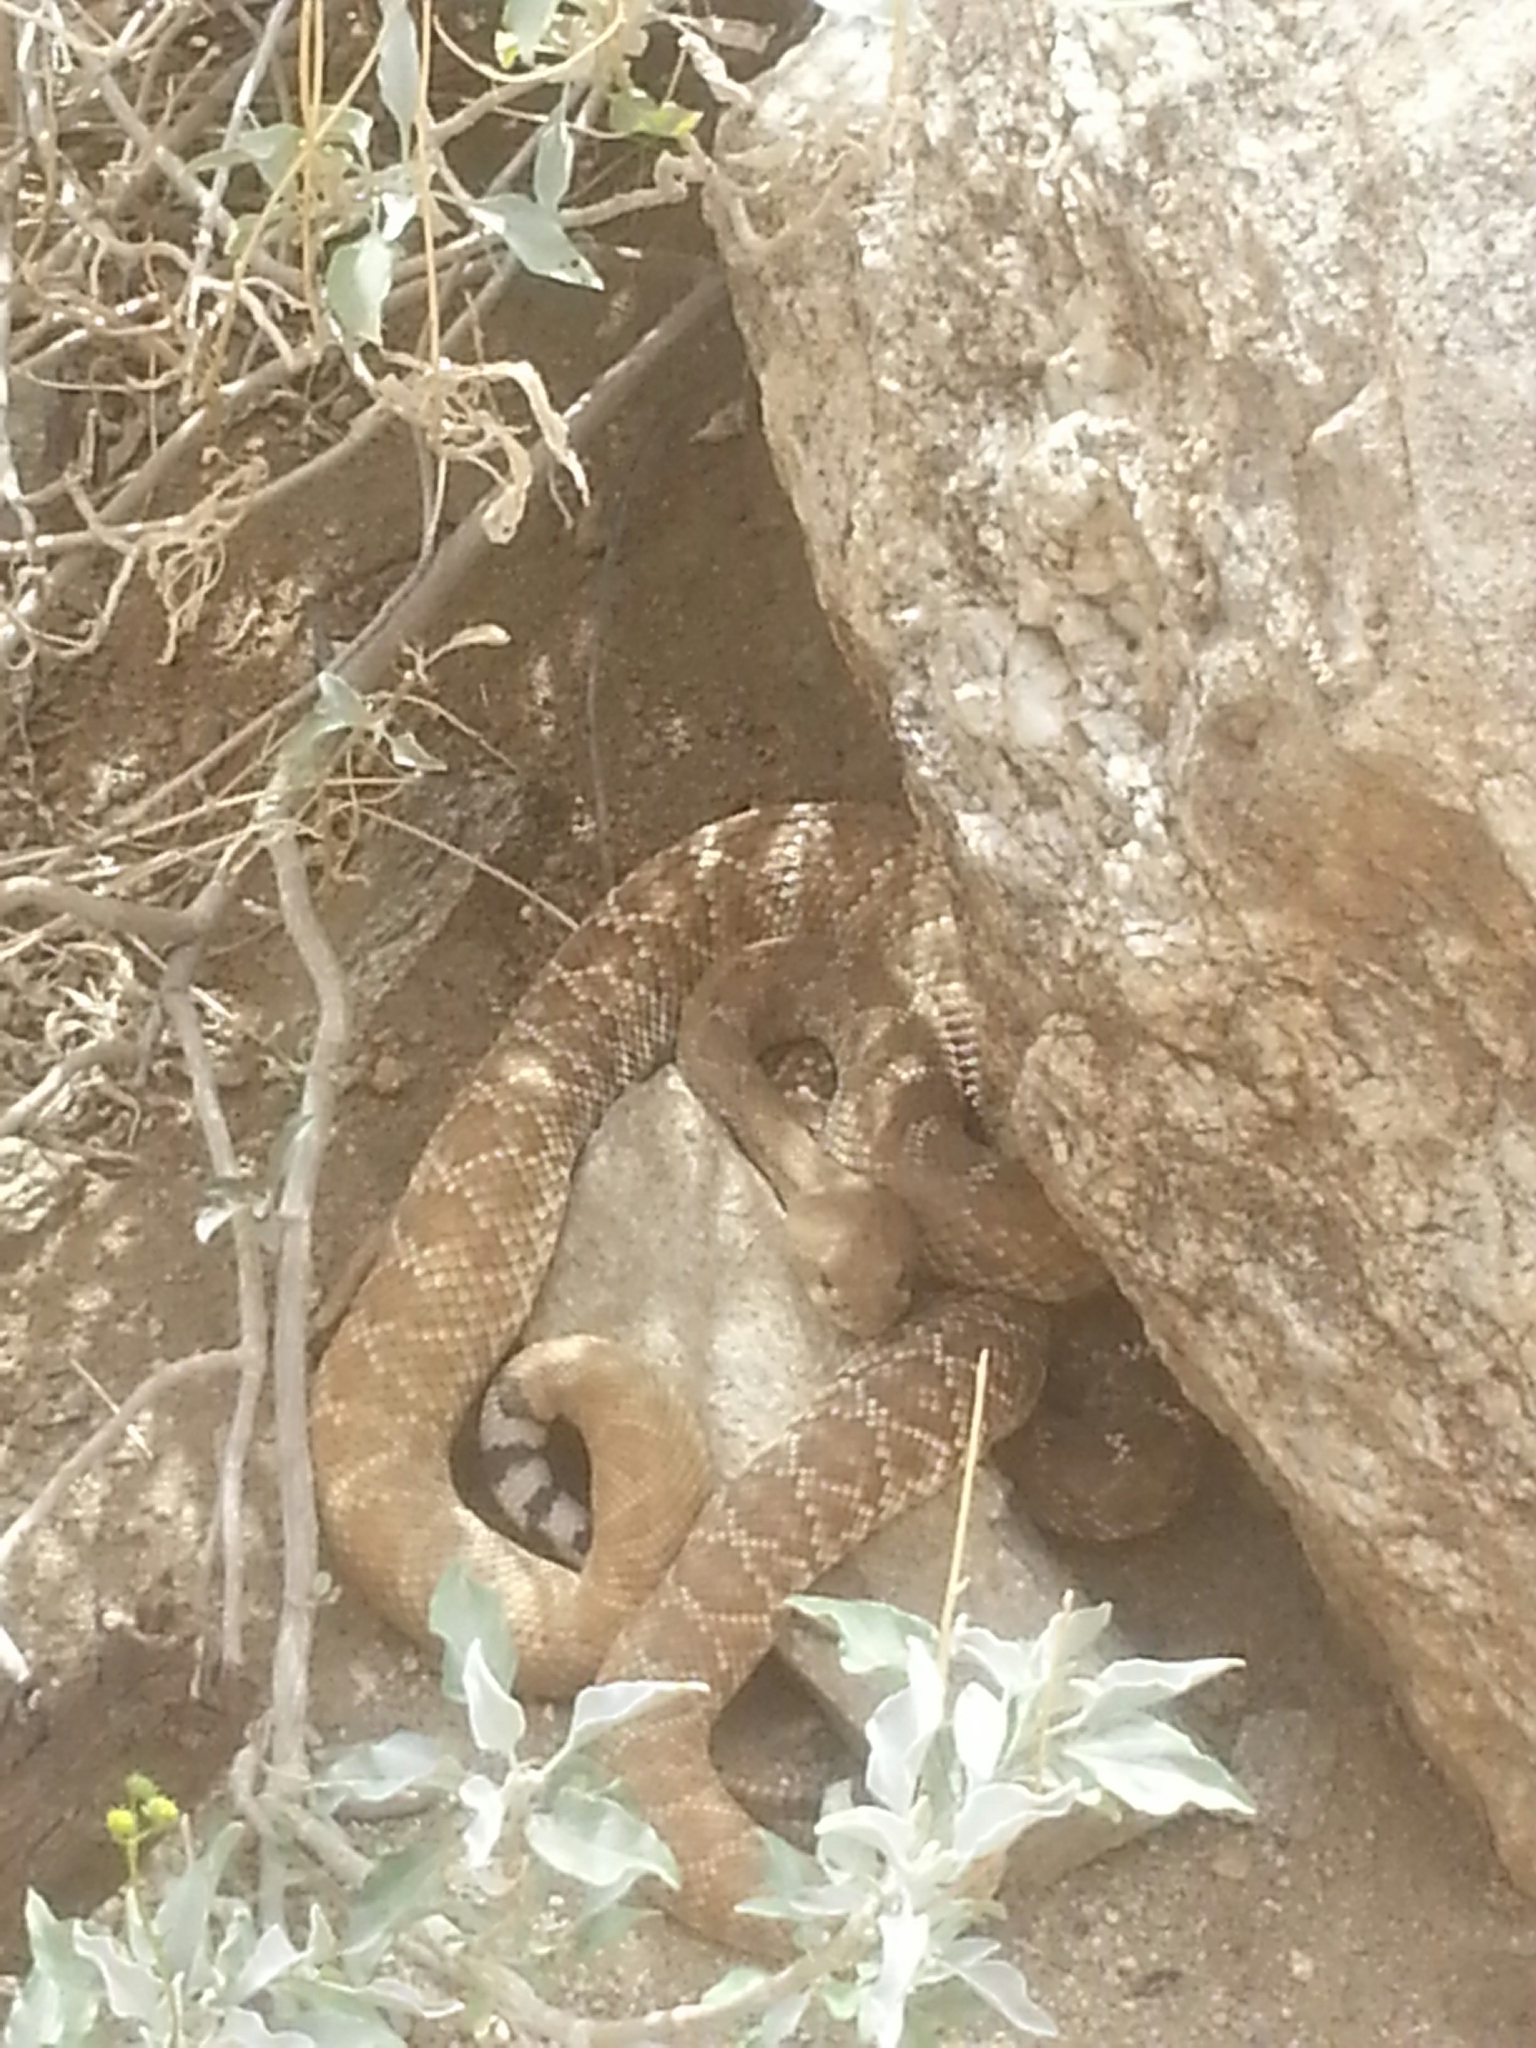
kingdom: Animalia
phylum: Chordata
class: Squamata
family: Viperidae
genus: Crotalus
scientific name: Crotalus ruber
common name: Red diamond rattlesnake
